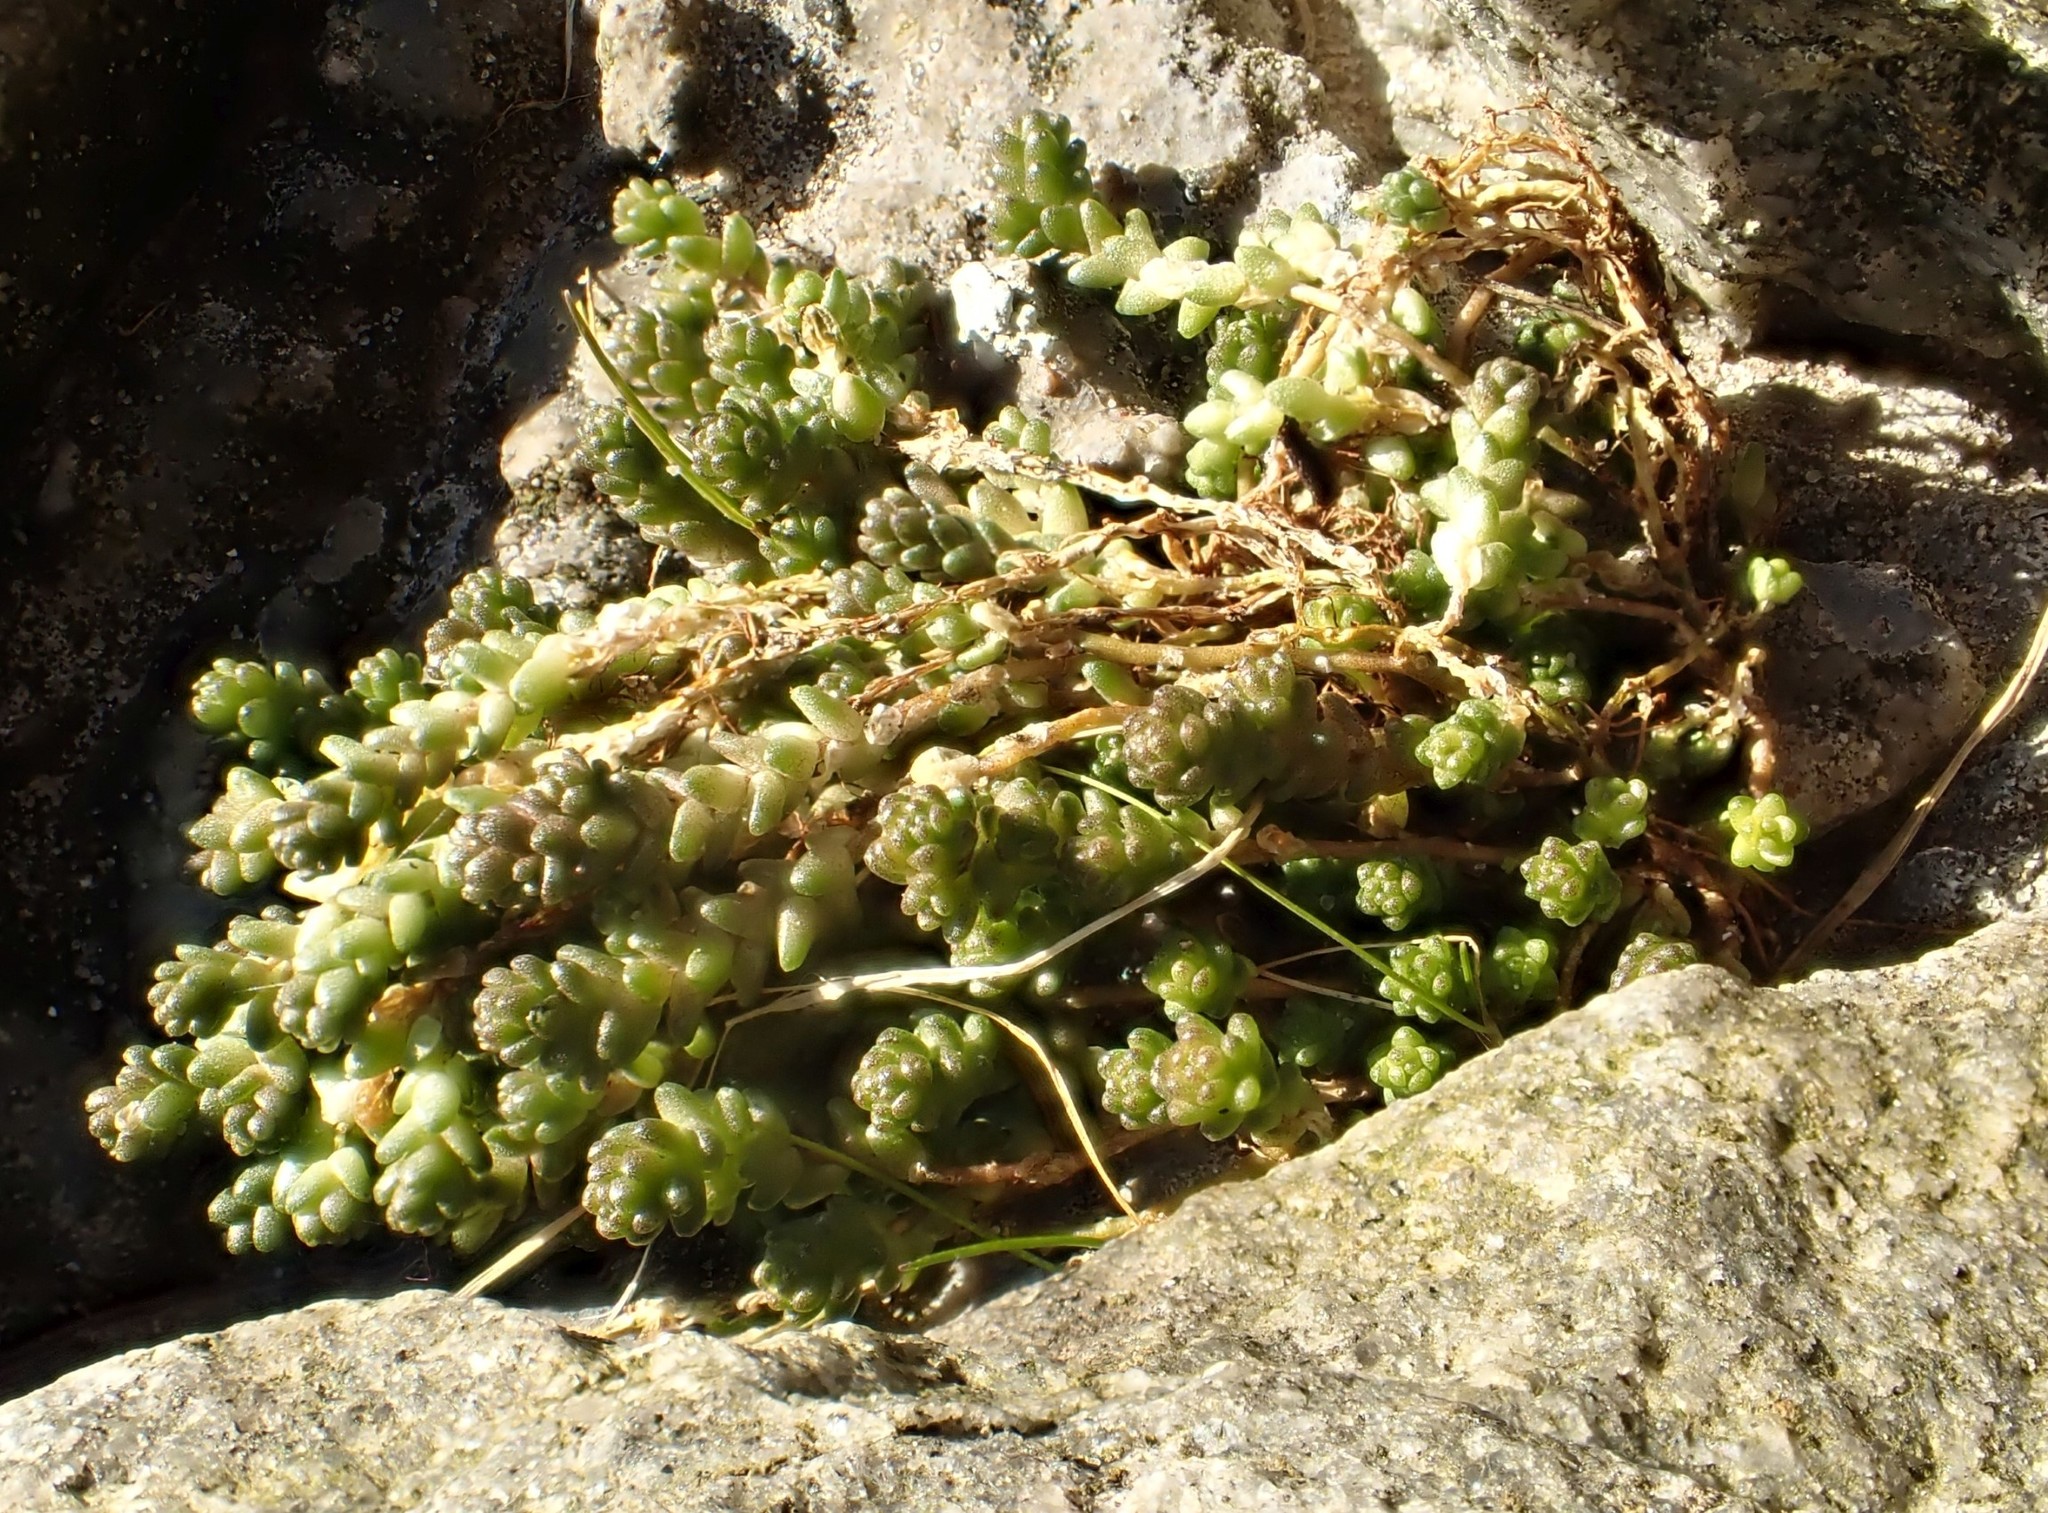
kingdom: Plantae
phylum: Tracheophyta
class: Magnoliopsida
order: Saxifragales
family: Crassulaceae
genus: Sedum
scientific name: Sedum acre
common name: Biting stonecrop
